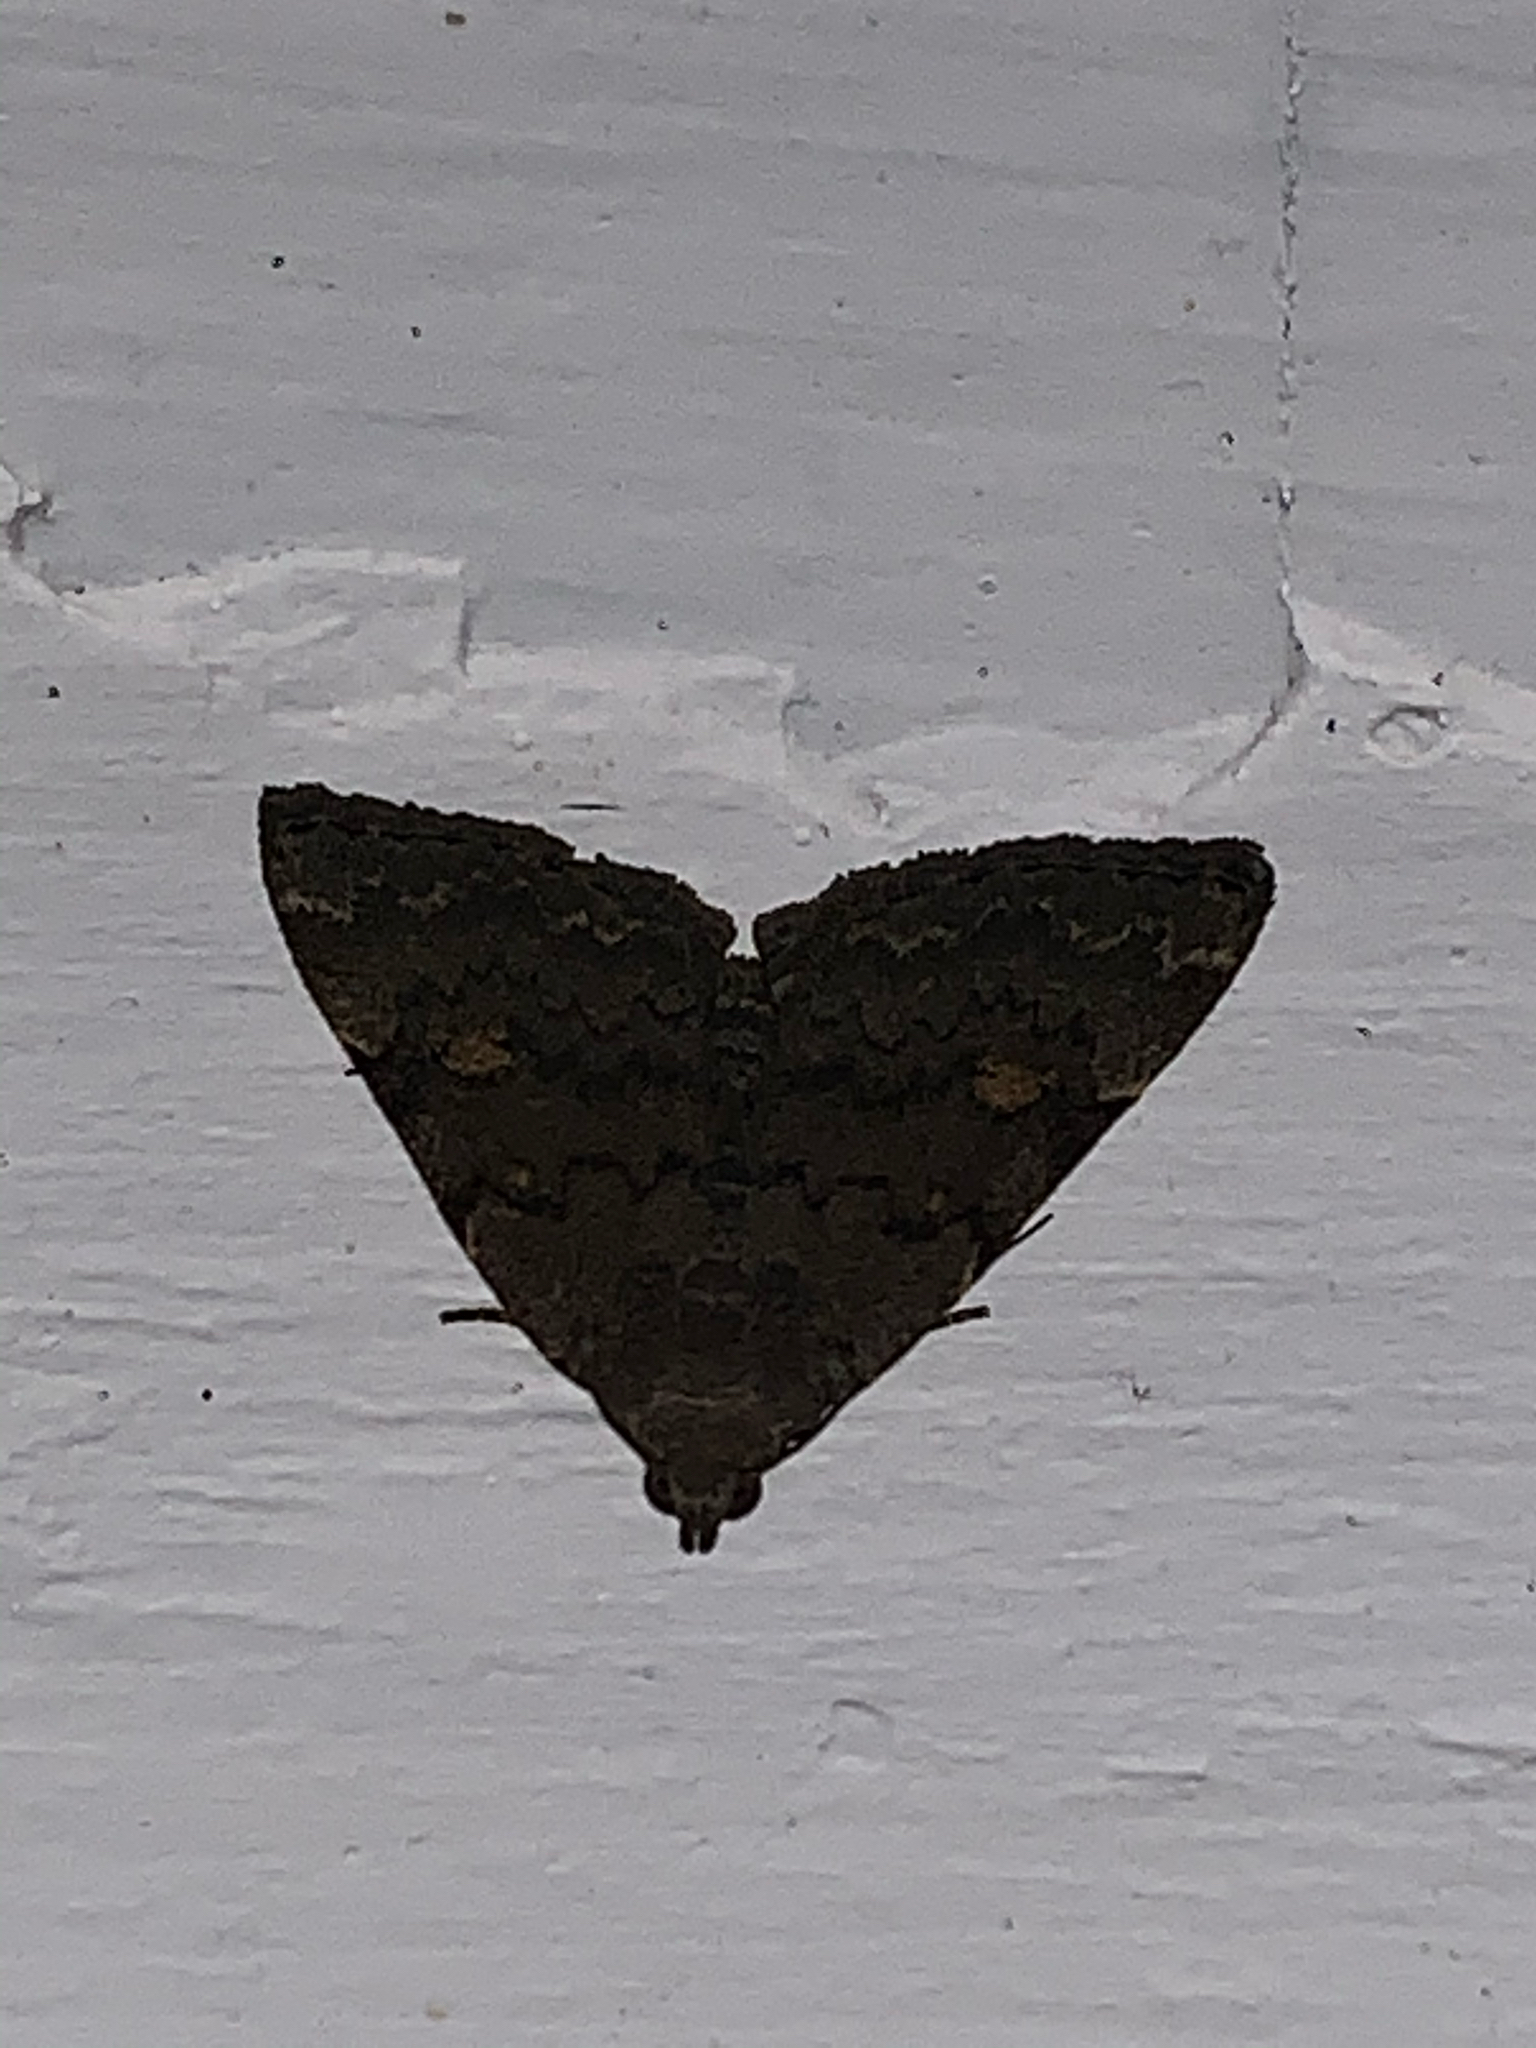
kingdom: Animalia
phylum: Arthropoda
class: Insecta
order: Lepidoptera
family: Erebidae
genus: Idia
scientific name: Idia aemula
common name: Common idia moth
